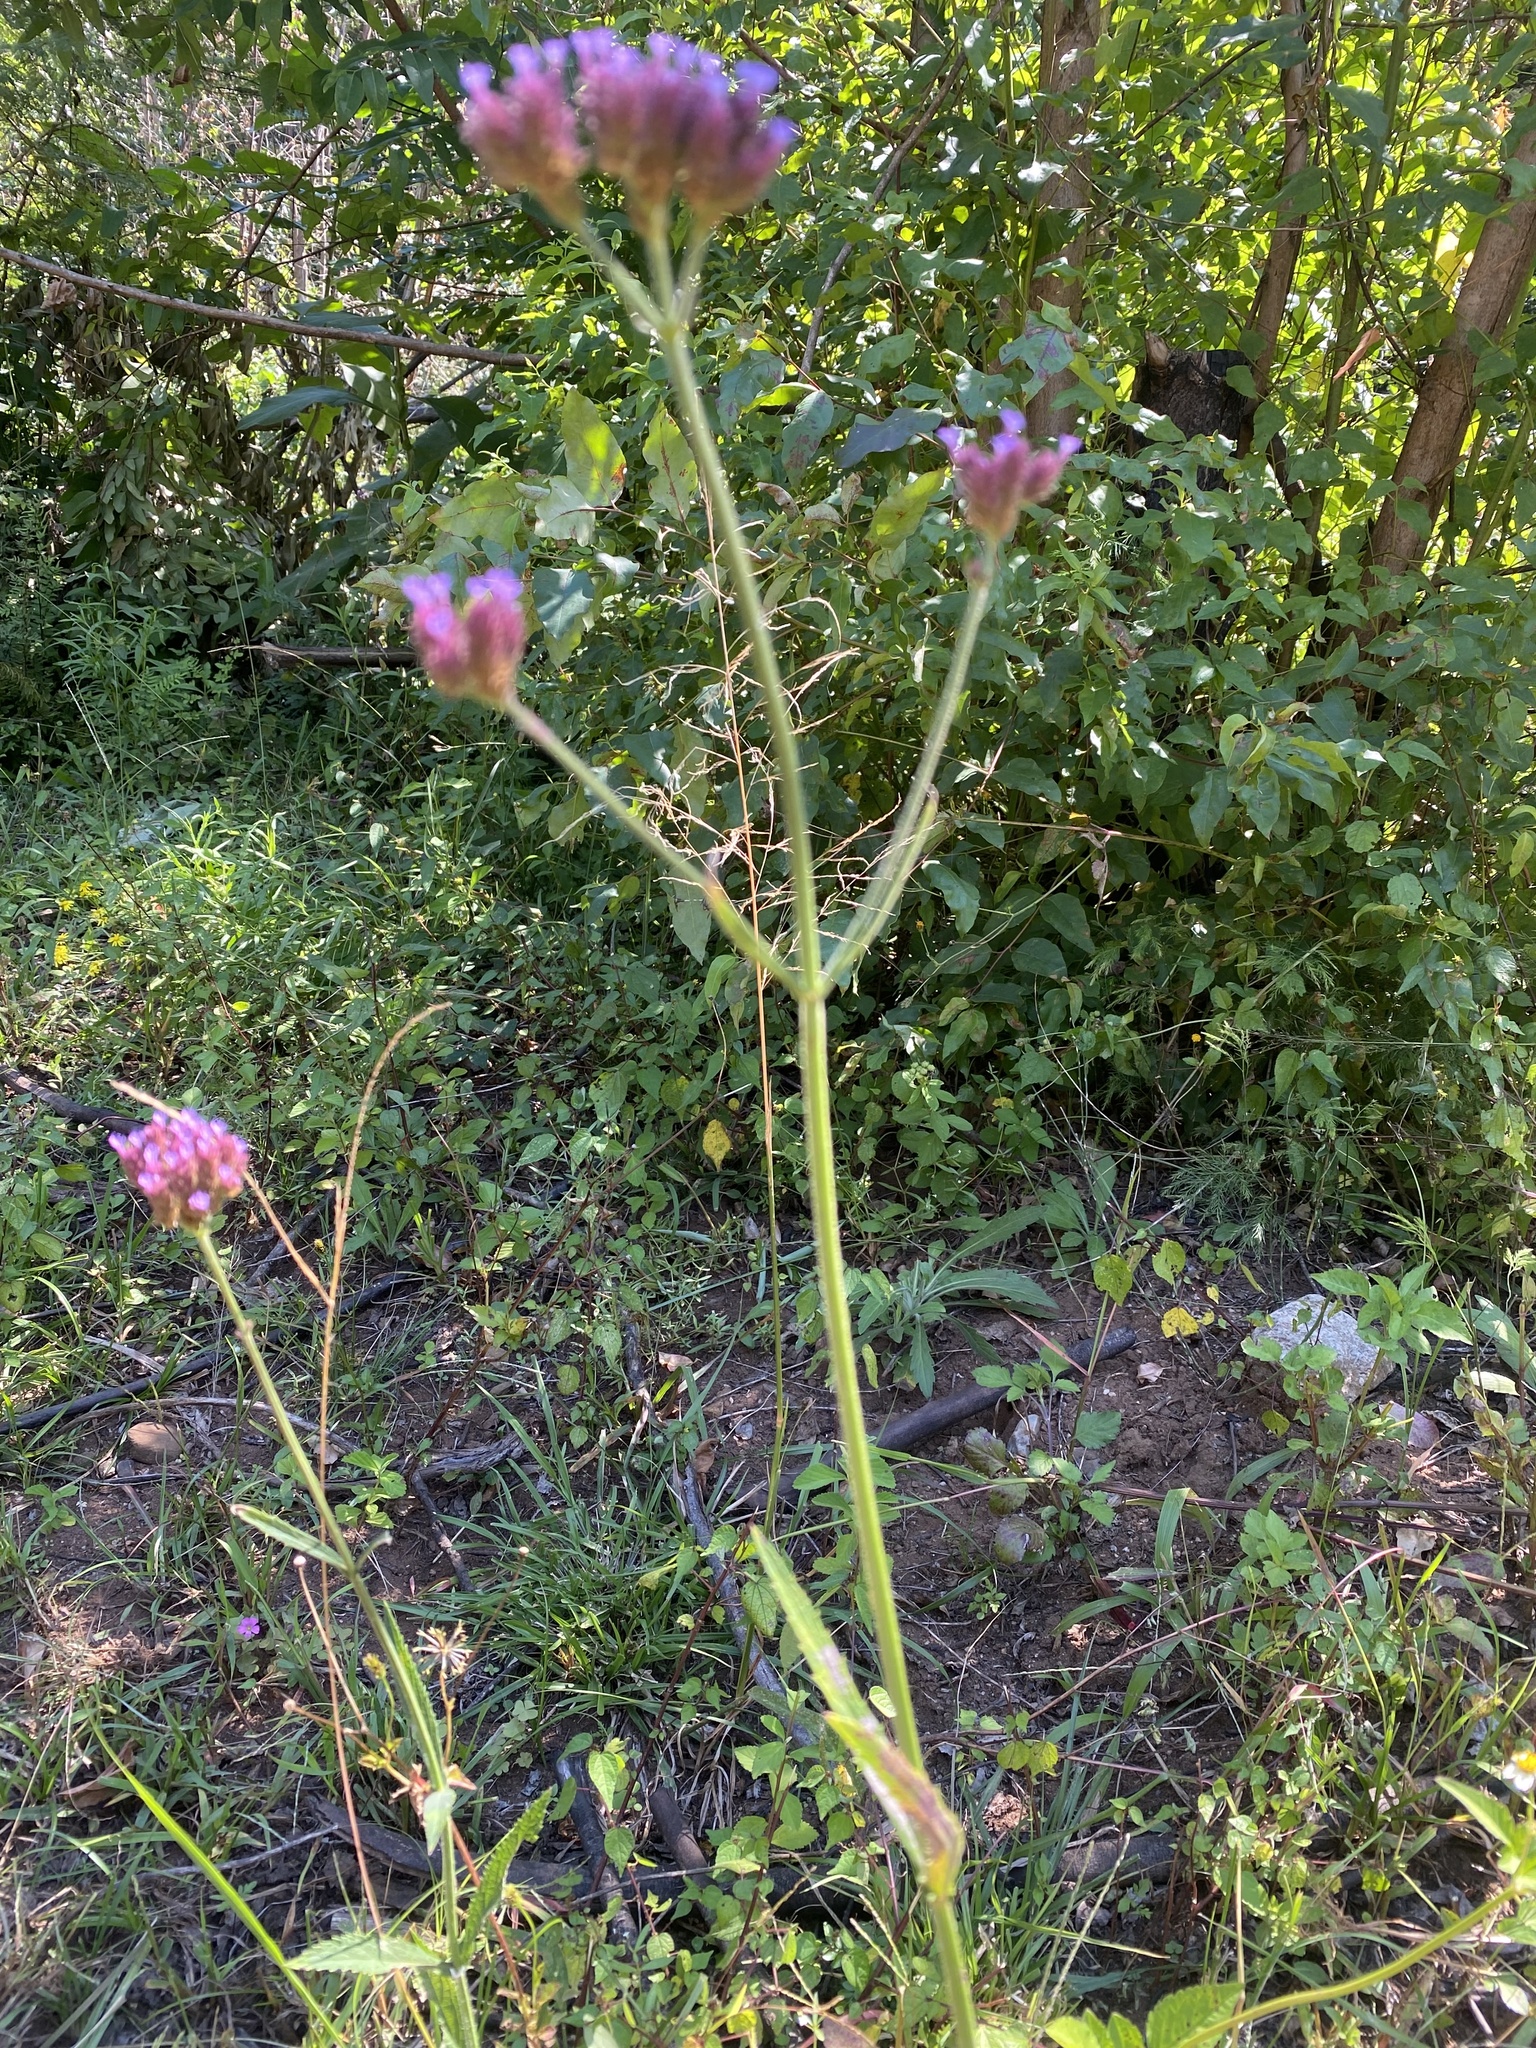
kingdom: Plantae
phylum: Tracheophyta
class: Magnoliopsida
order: Lamiales
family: Verbenaceae
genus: Verbena
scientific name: Verbena bonariensis
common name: Purpletop vervain
